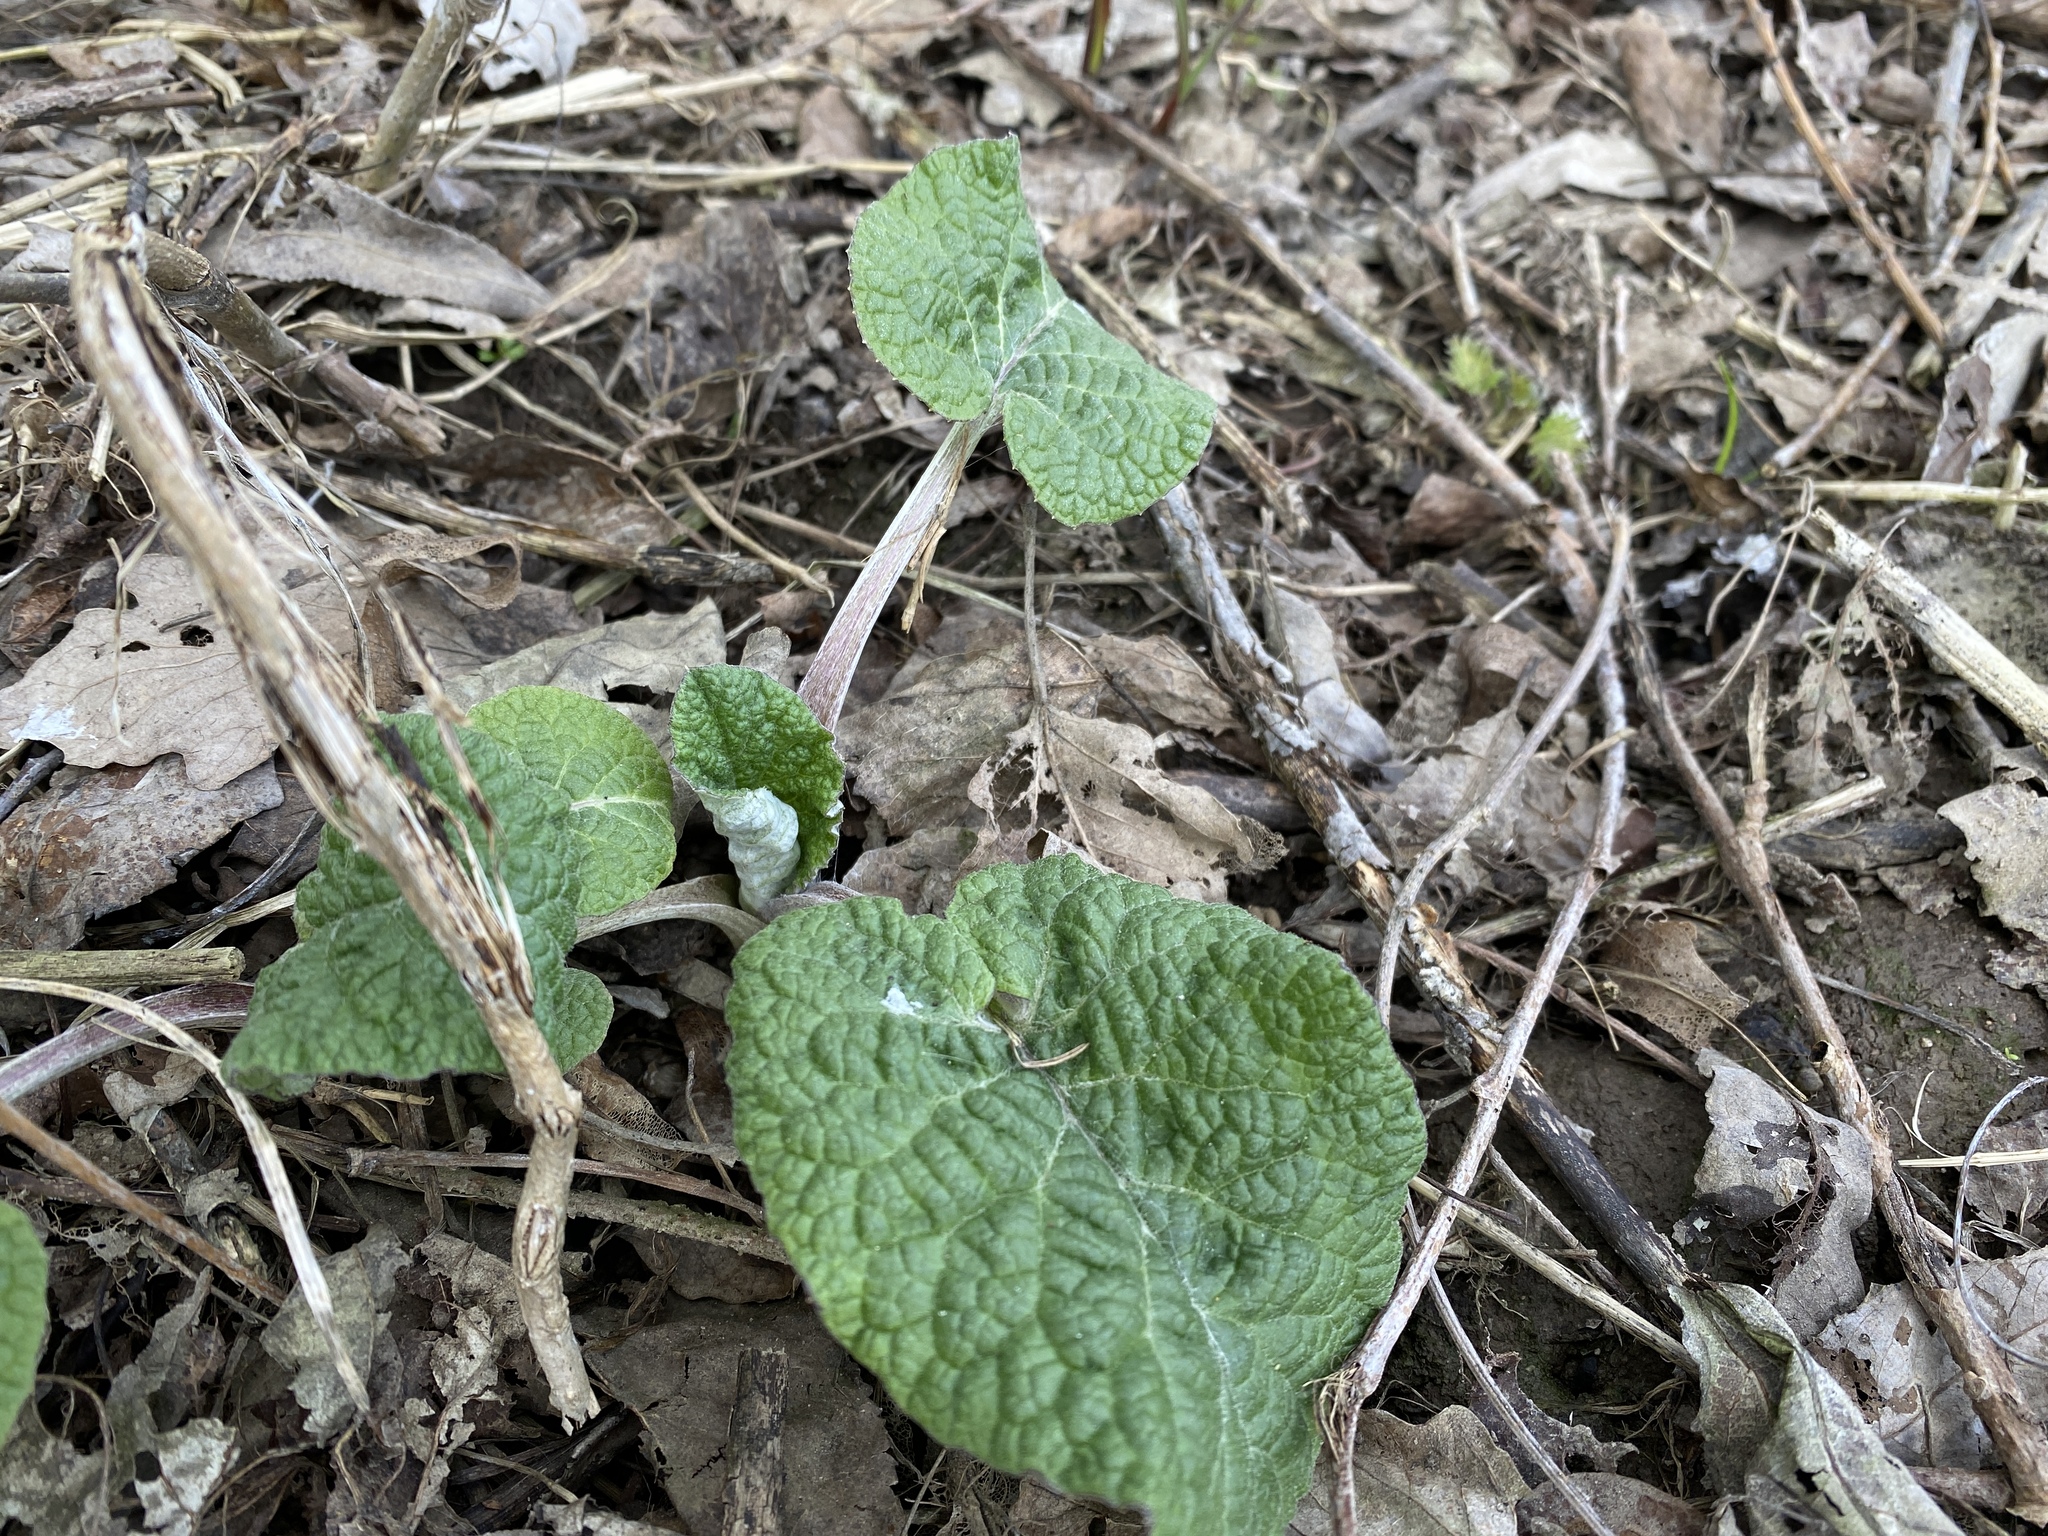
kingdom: Plantae
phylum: Tracheophyta
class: Magnoliopsida
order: Asterales
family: Asteraceae
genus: Arctium
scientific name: Arctium
